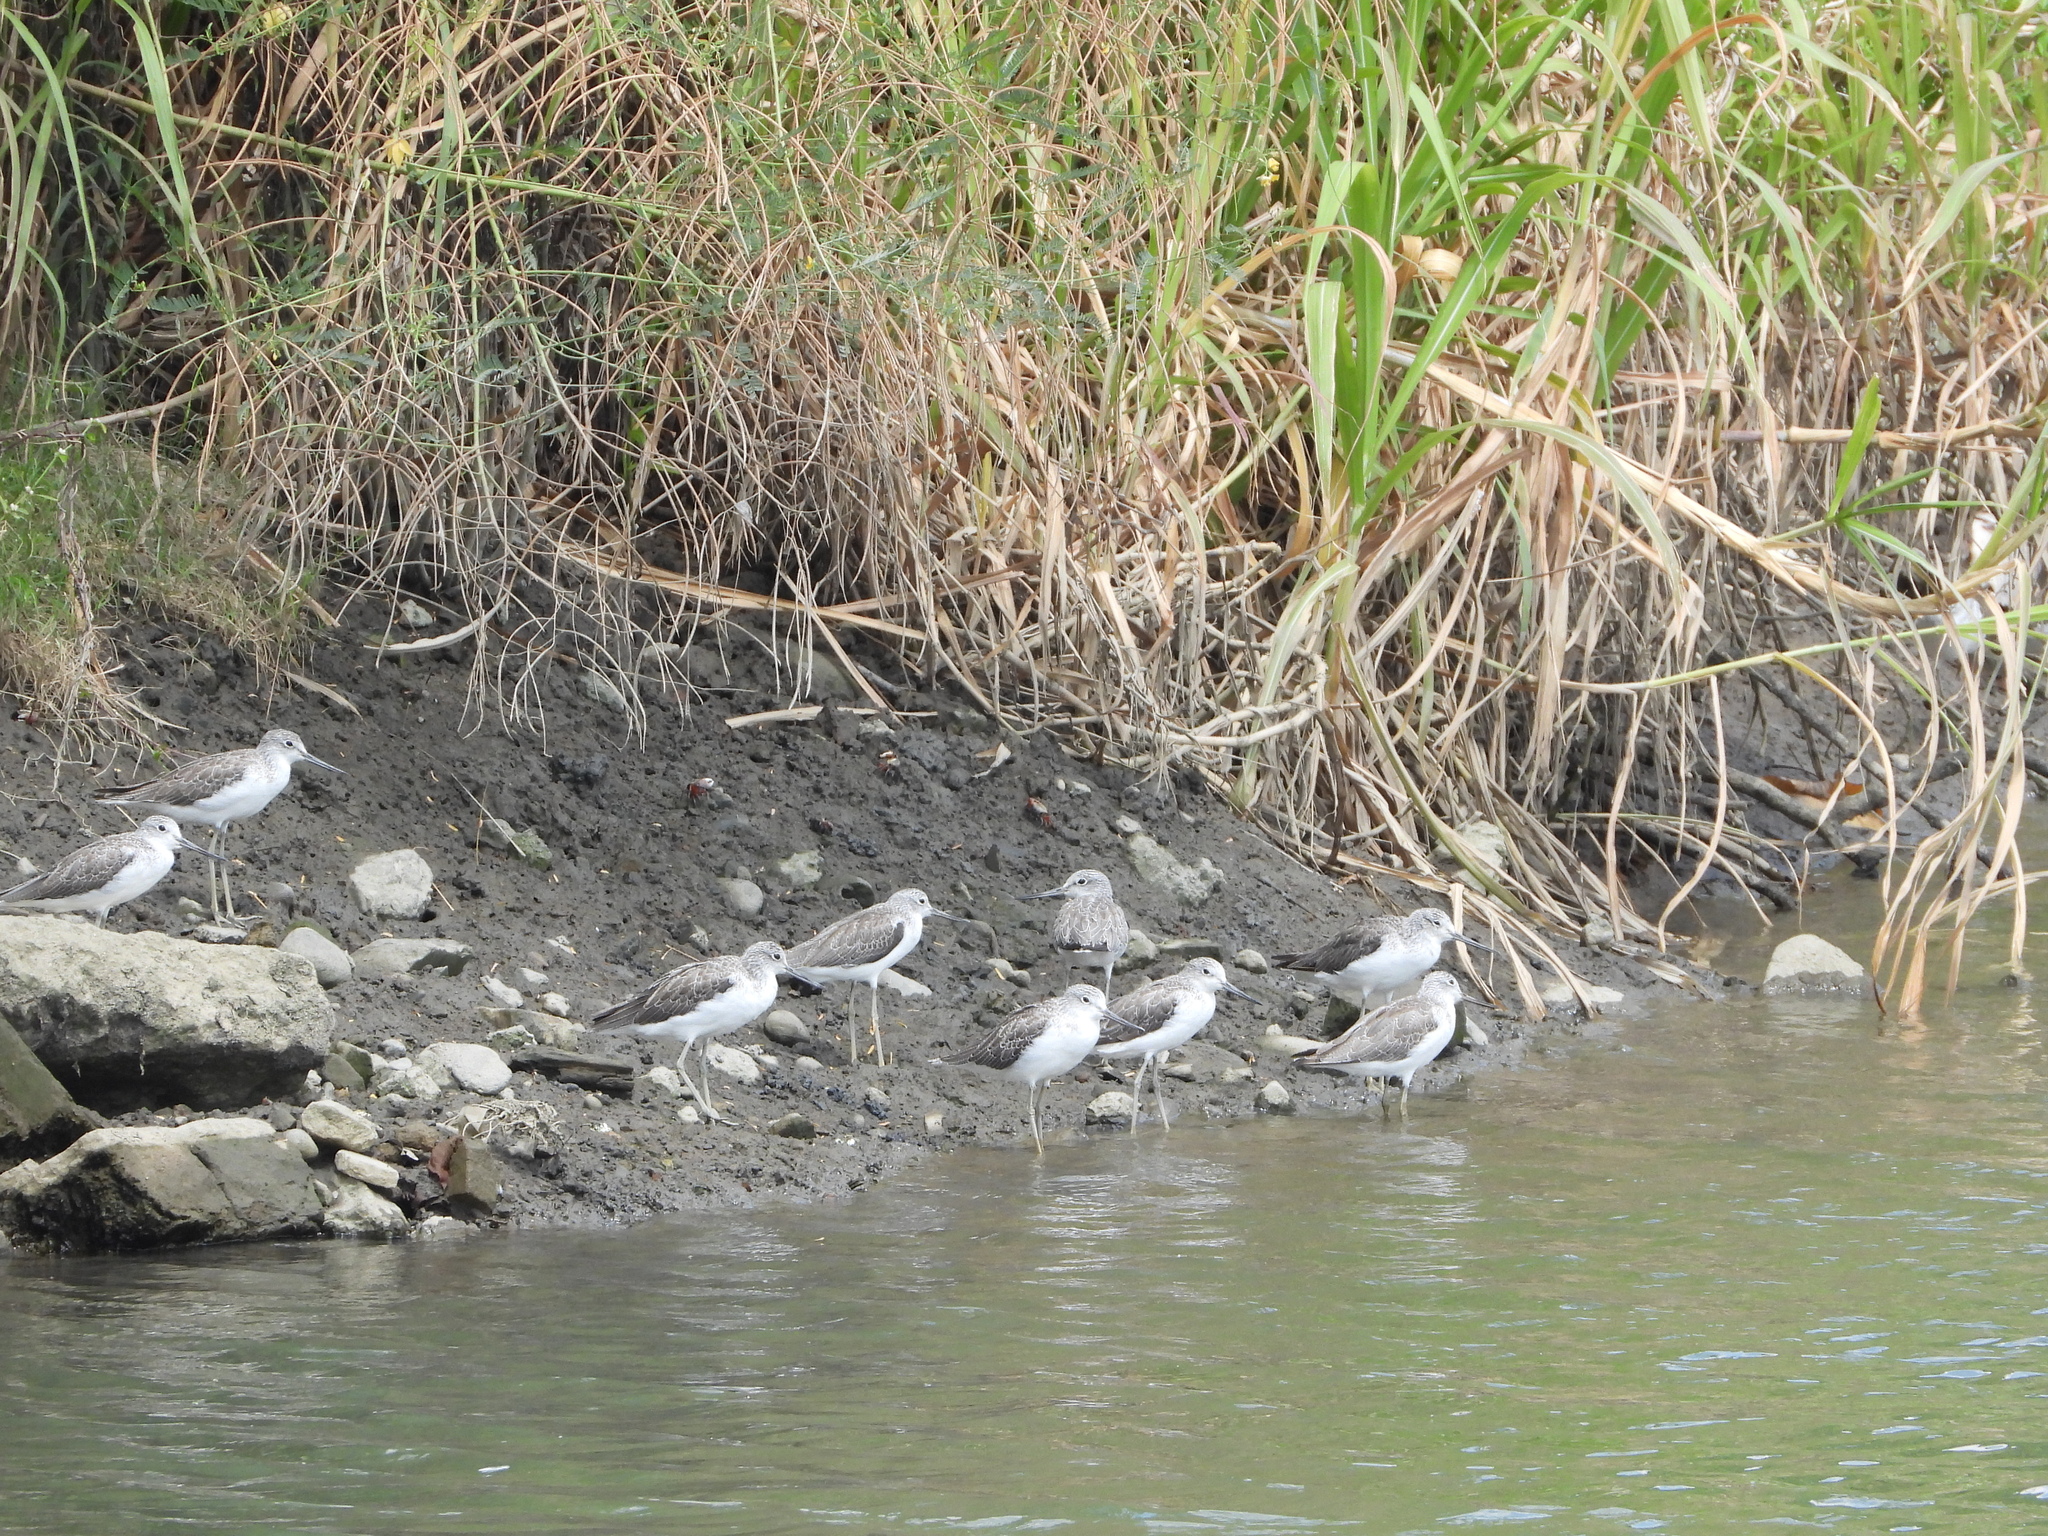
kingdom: Animalia
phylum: Chordata
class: Aves
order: Charadriiformes
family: Scolopacidae
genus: Tringa
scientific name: Tringa nebularia
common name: Common greenshank
